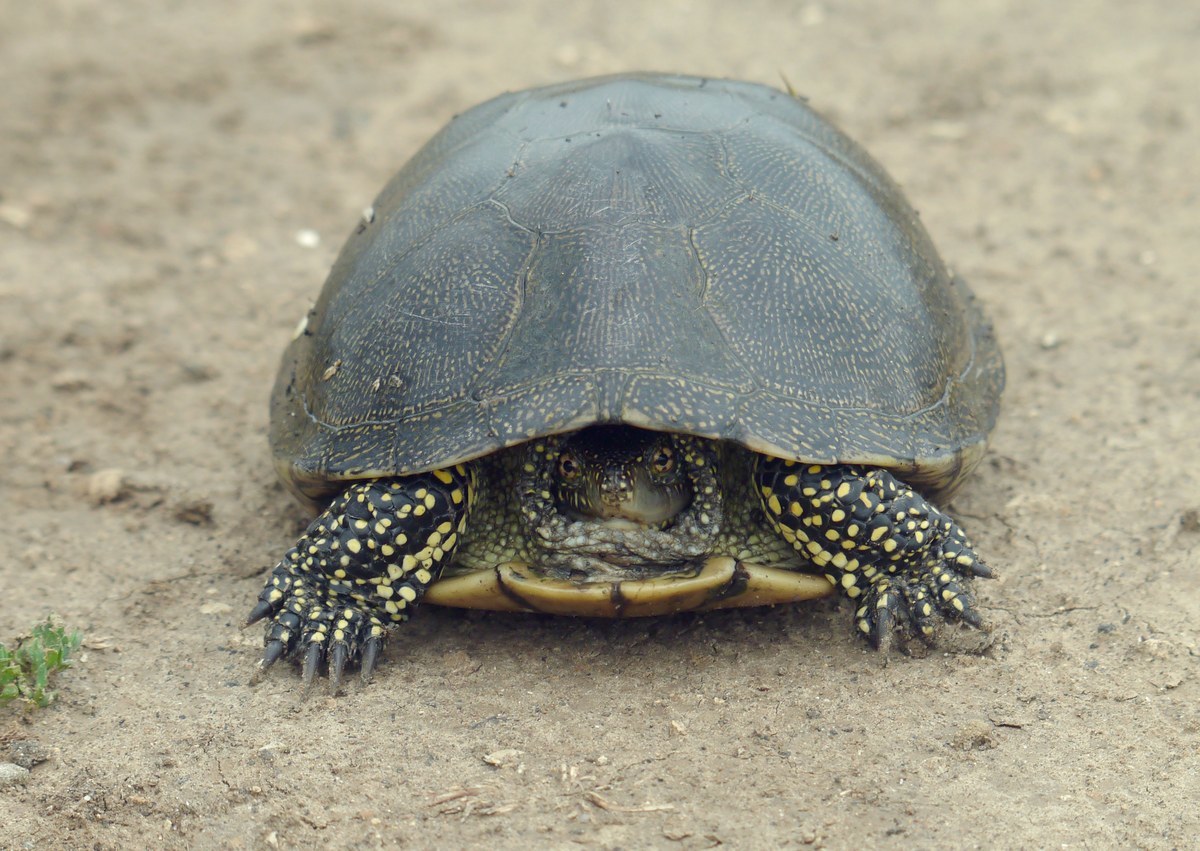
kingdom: Animalia
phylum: Chordata
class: Testudines
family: Emydidae
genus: Emys
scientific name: Emys orbicularis
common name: European pond turtle
